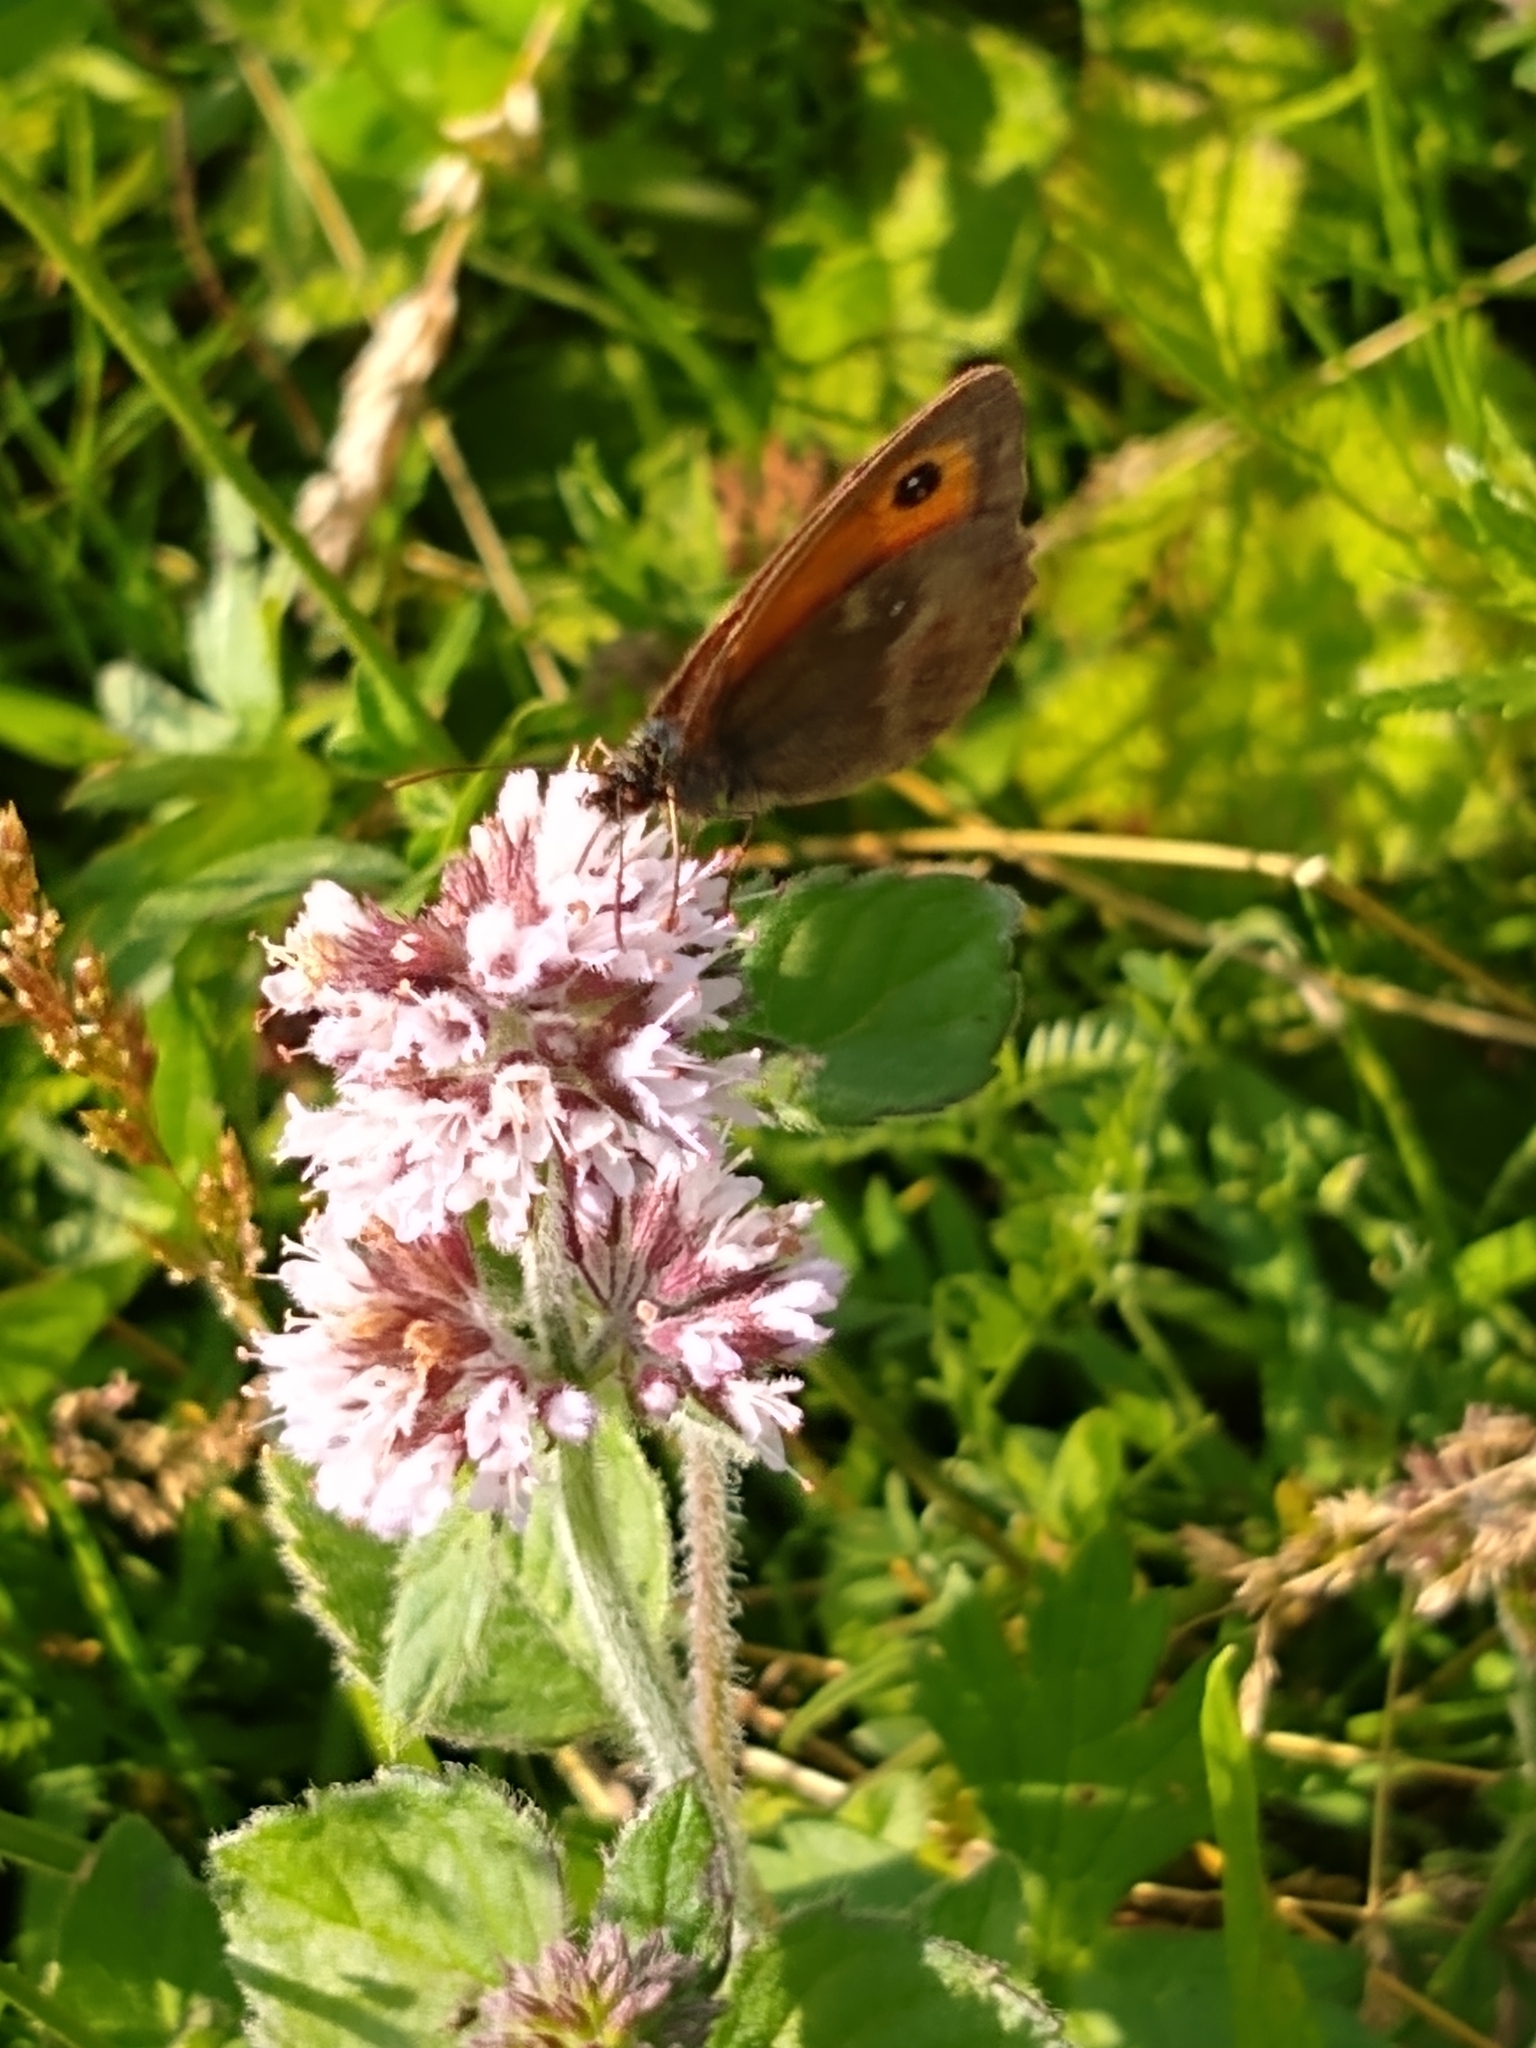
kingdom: Animalia
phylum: Arthropoda
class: Insecta
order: Lepidoptera
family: Nymphalidae
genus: Pyronia
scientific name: Pyronia tithonus
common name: Gatekeeper
